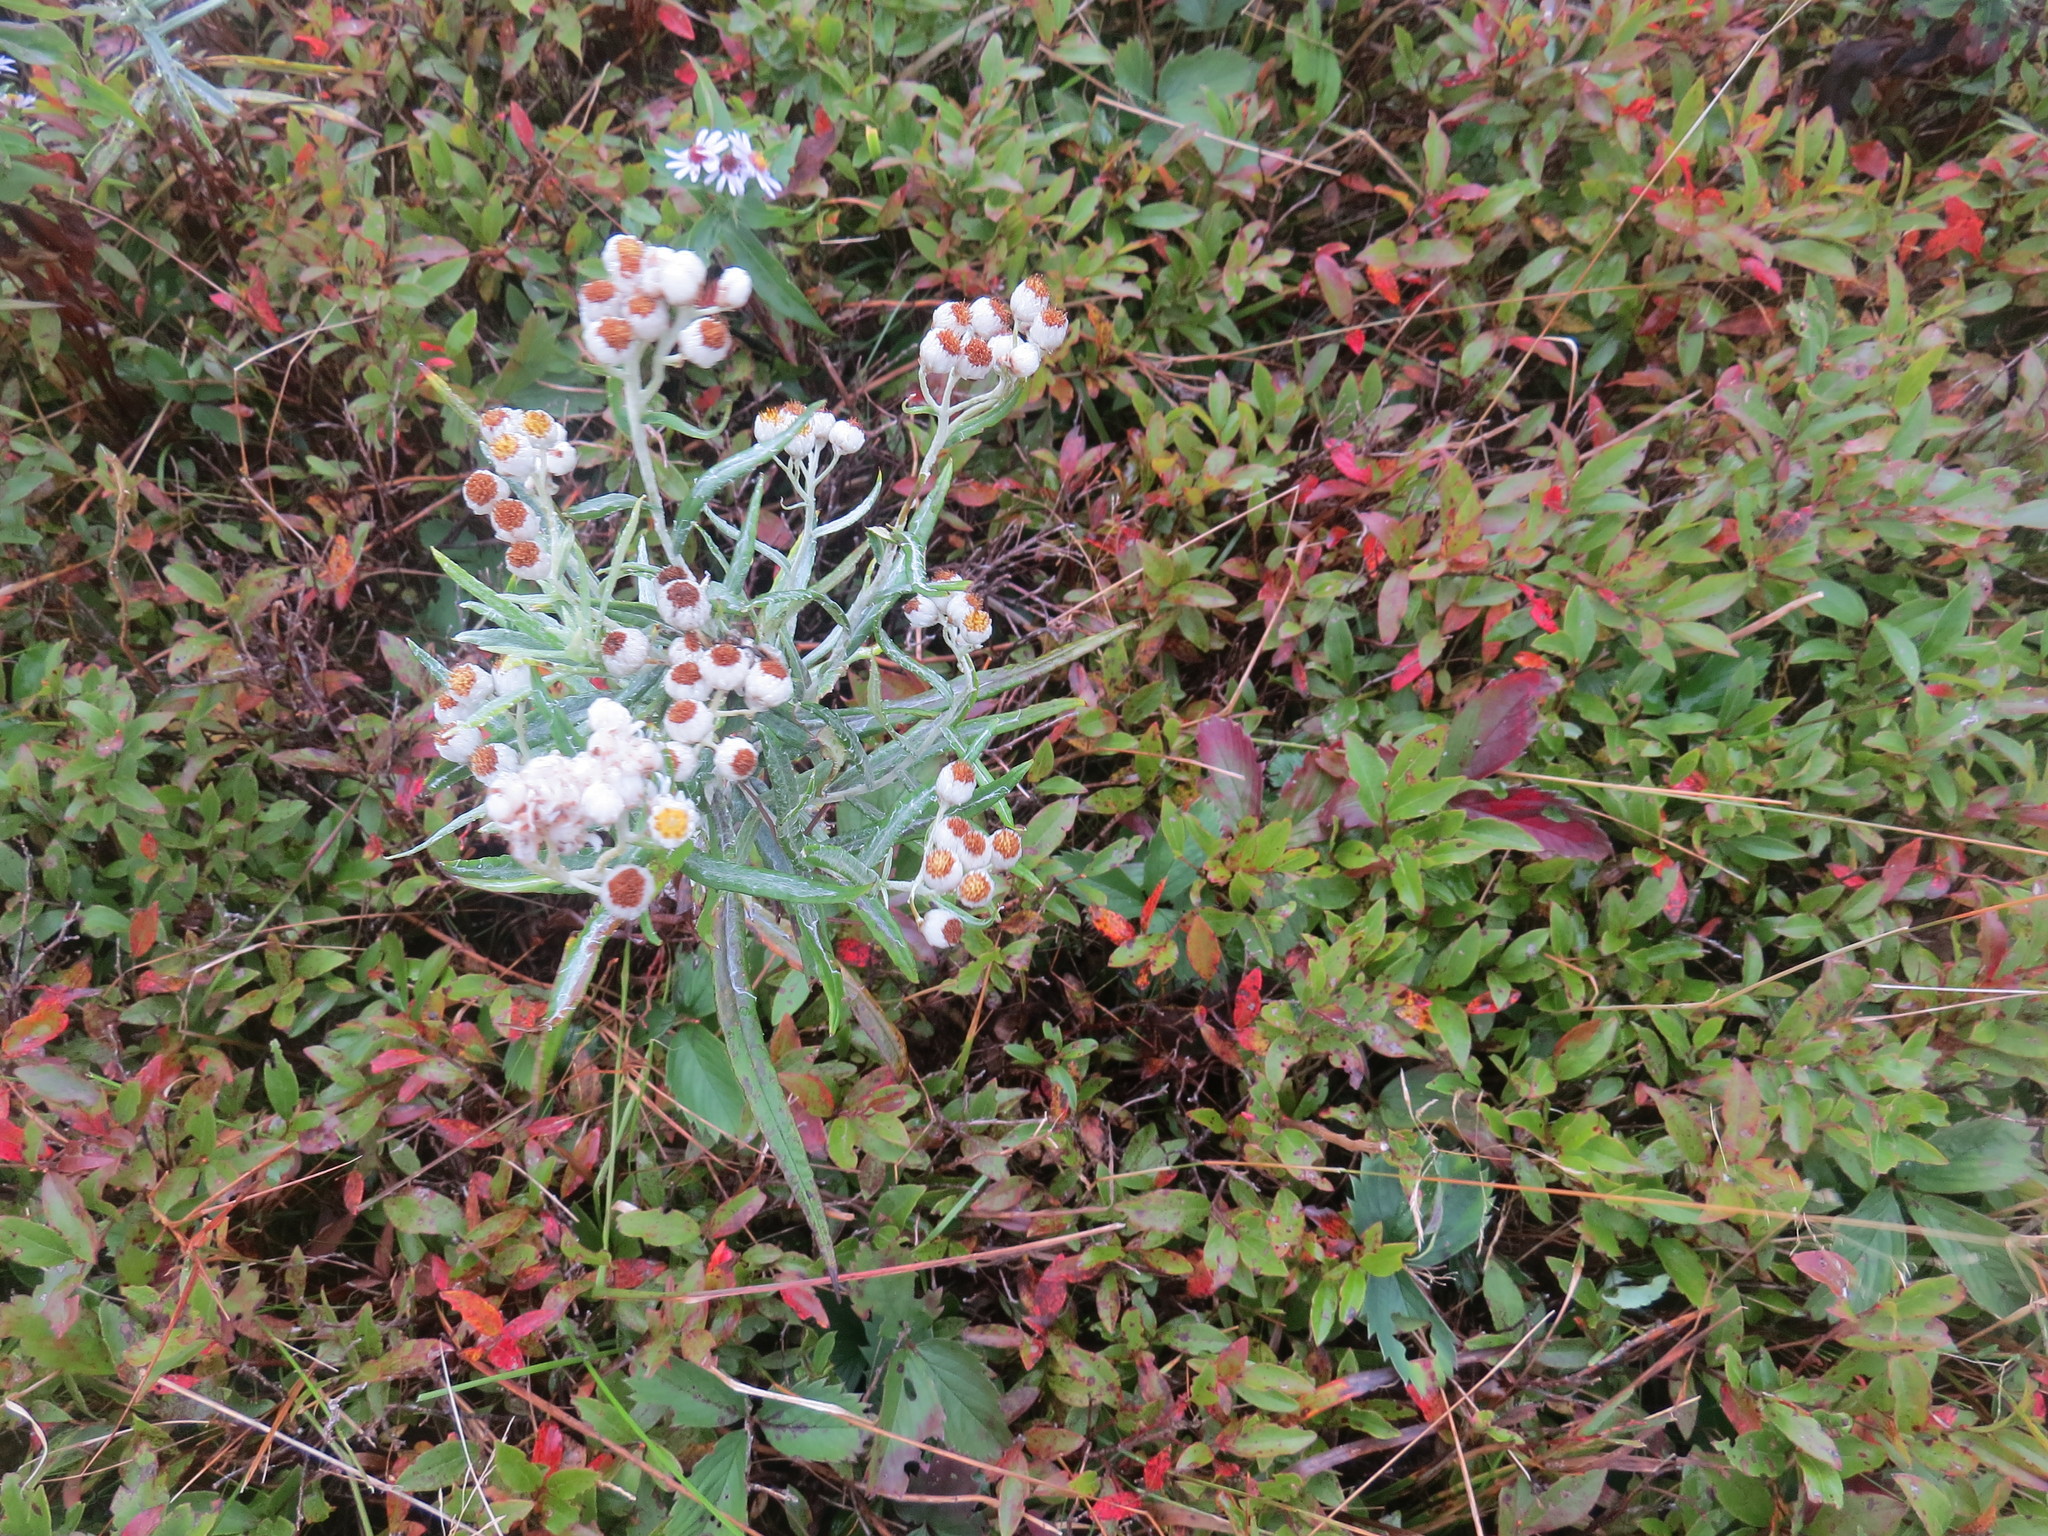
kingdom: Plantae
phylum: Tracheophyta
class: Magnoliopsida
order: Asterales
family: Asteraceae
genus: Anaphalis
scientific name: Anaphalis margaritacea
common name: Pearly everlasting
